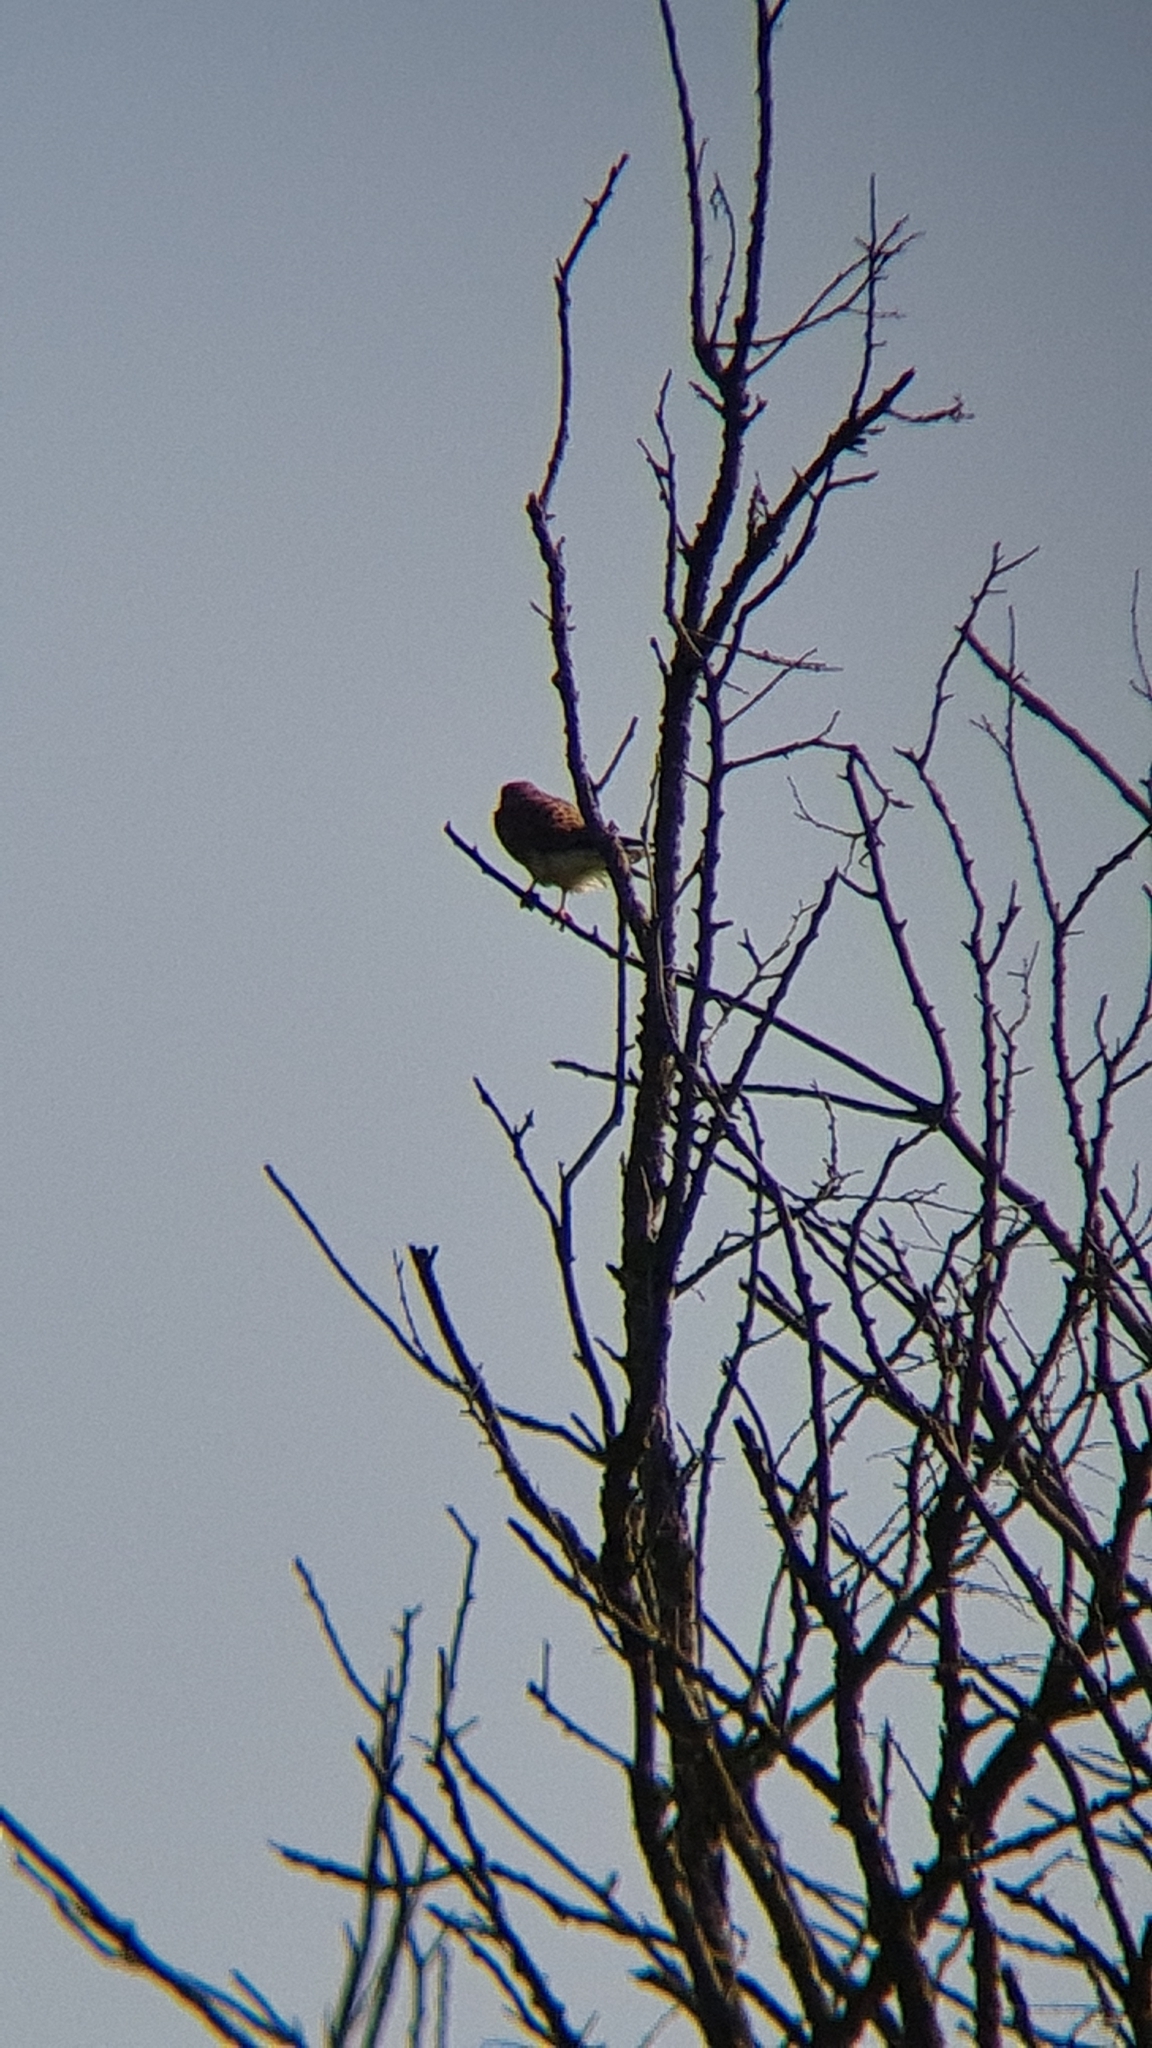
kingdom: Animalia
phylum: Chordata
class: Aves
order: Falconiformes
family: Falconidae
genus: Falco
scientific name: Falco tinnunculus
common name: Common kestrel
